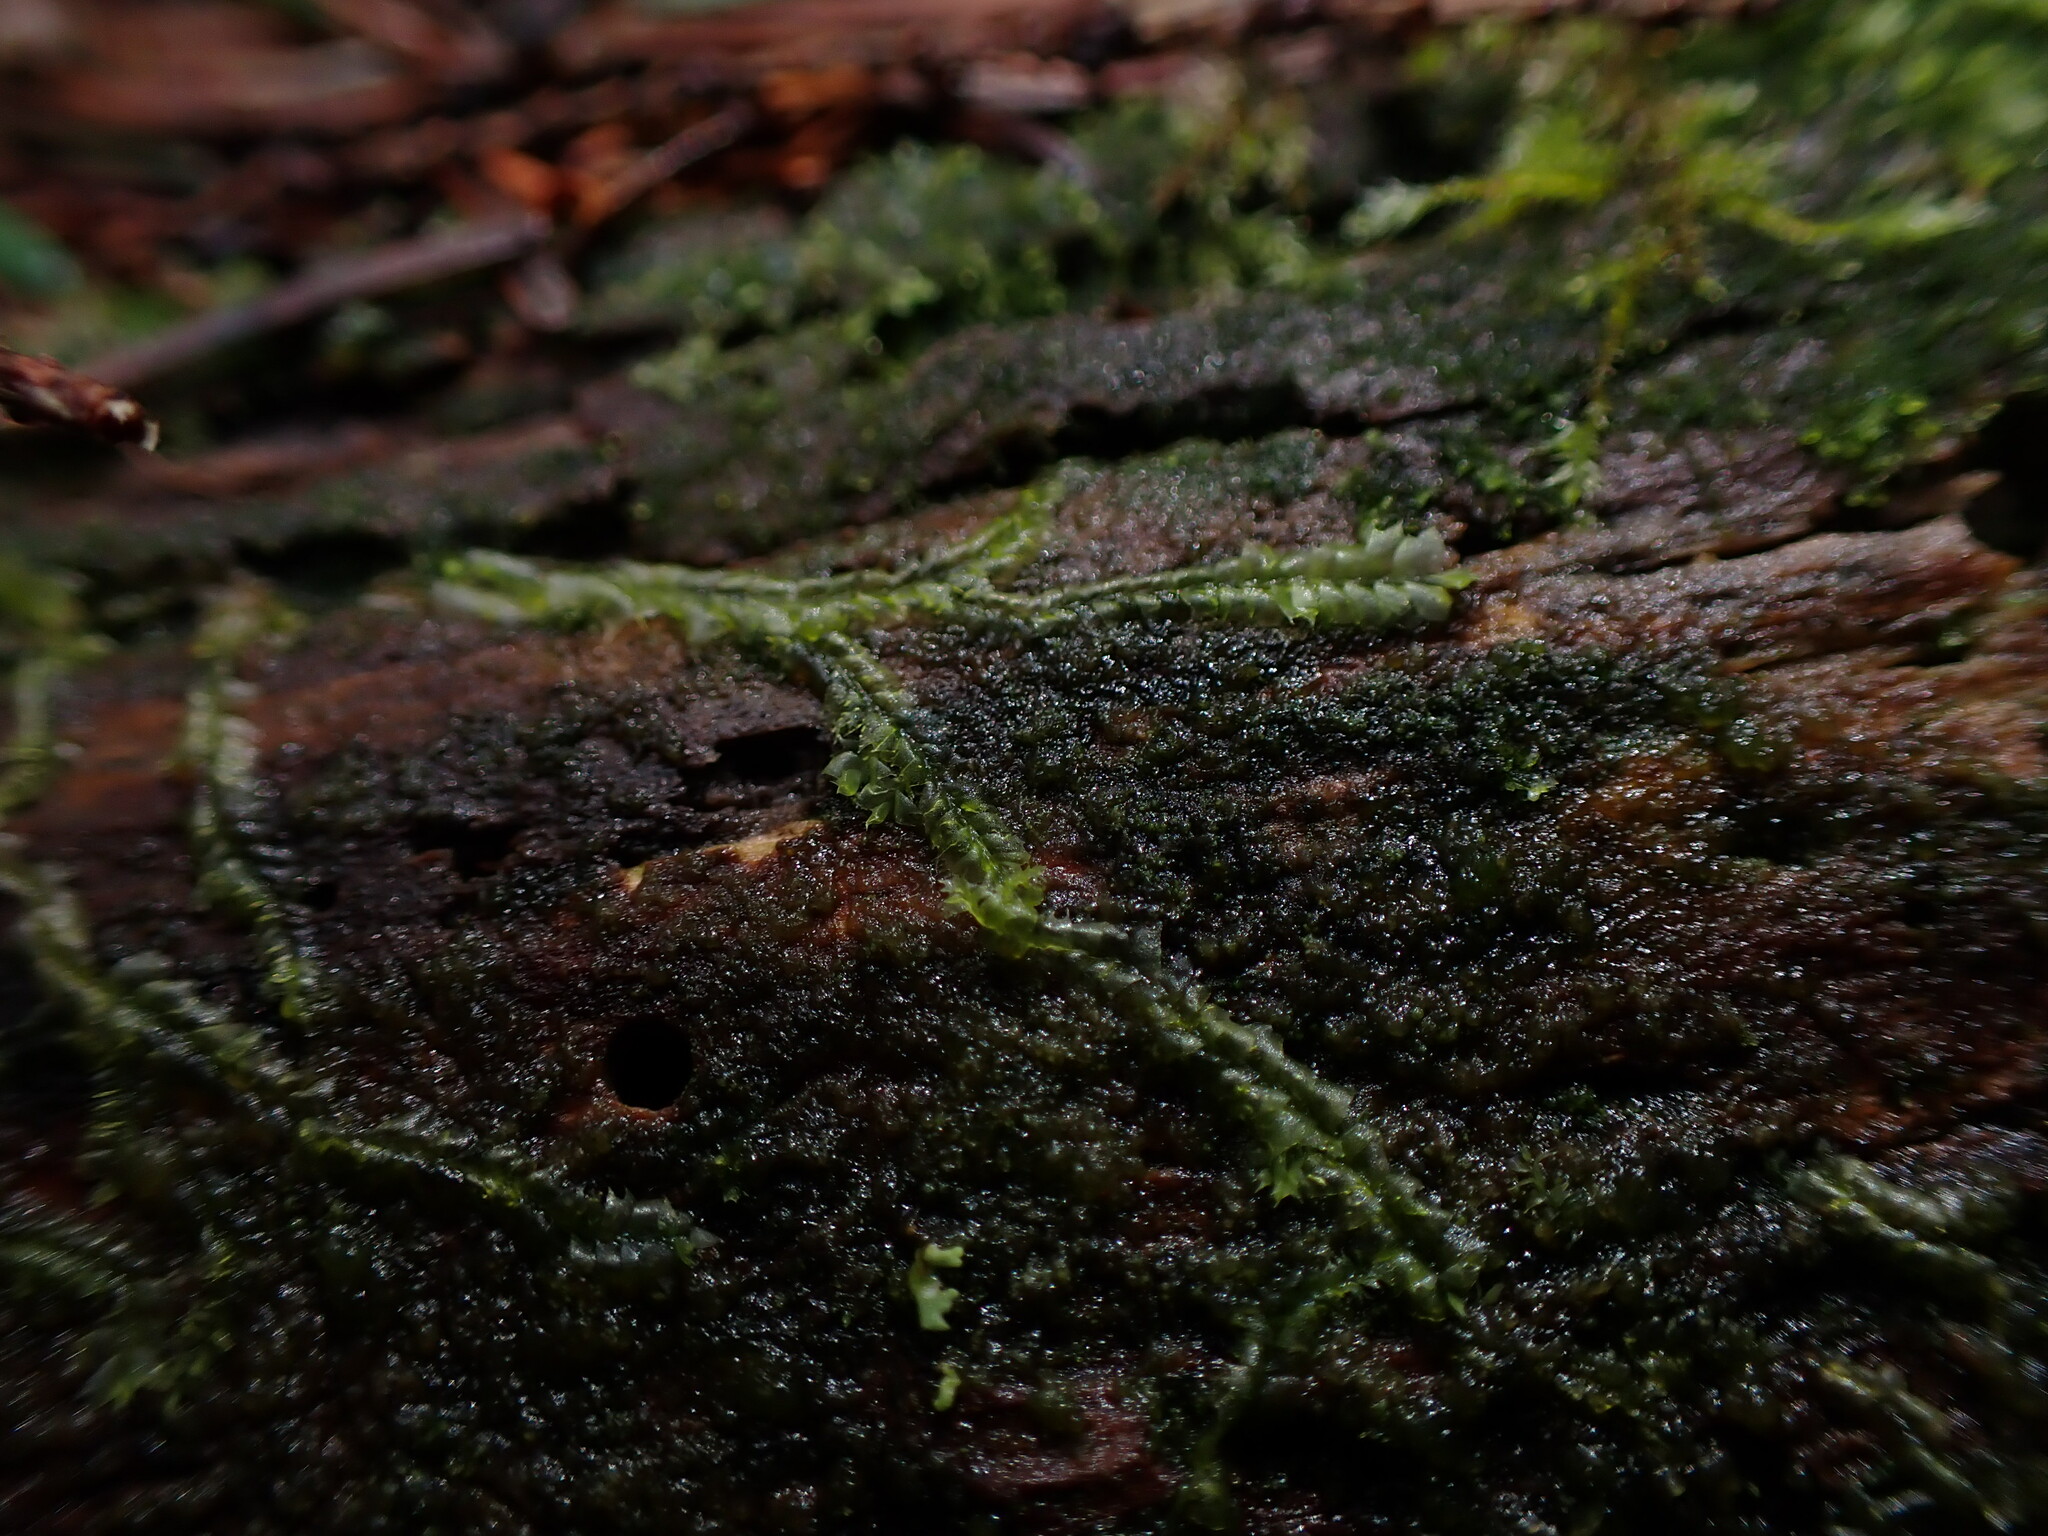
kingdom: Plantae
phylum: Marchantiophyta
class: Jungermanniopsida
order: Jungermanniales
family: Lophocoleaceae
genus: Lophocolea
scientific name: Lophocolea bidentata
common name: Bifid crestwort
